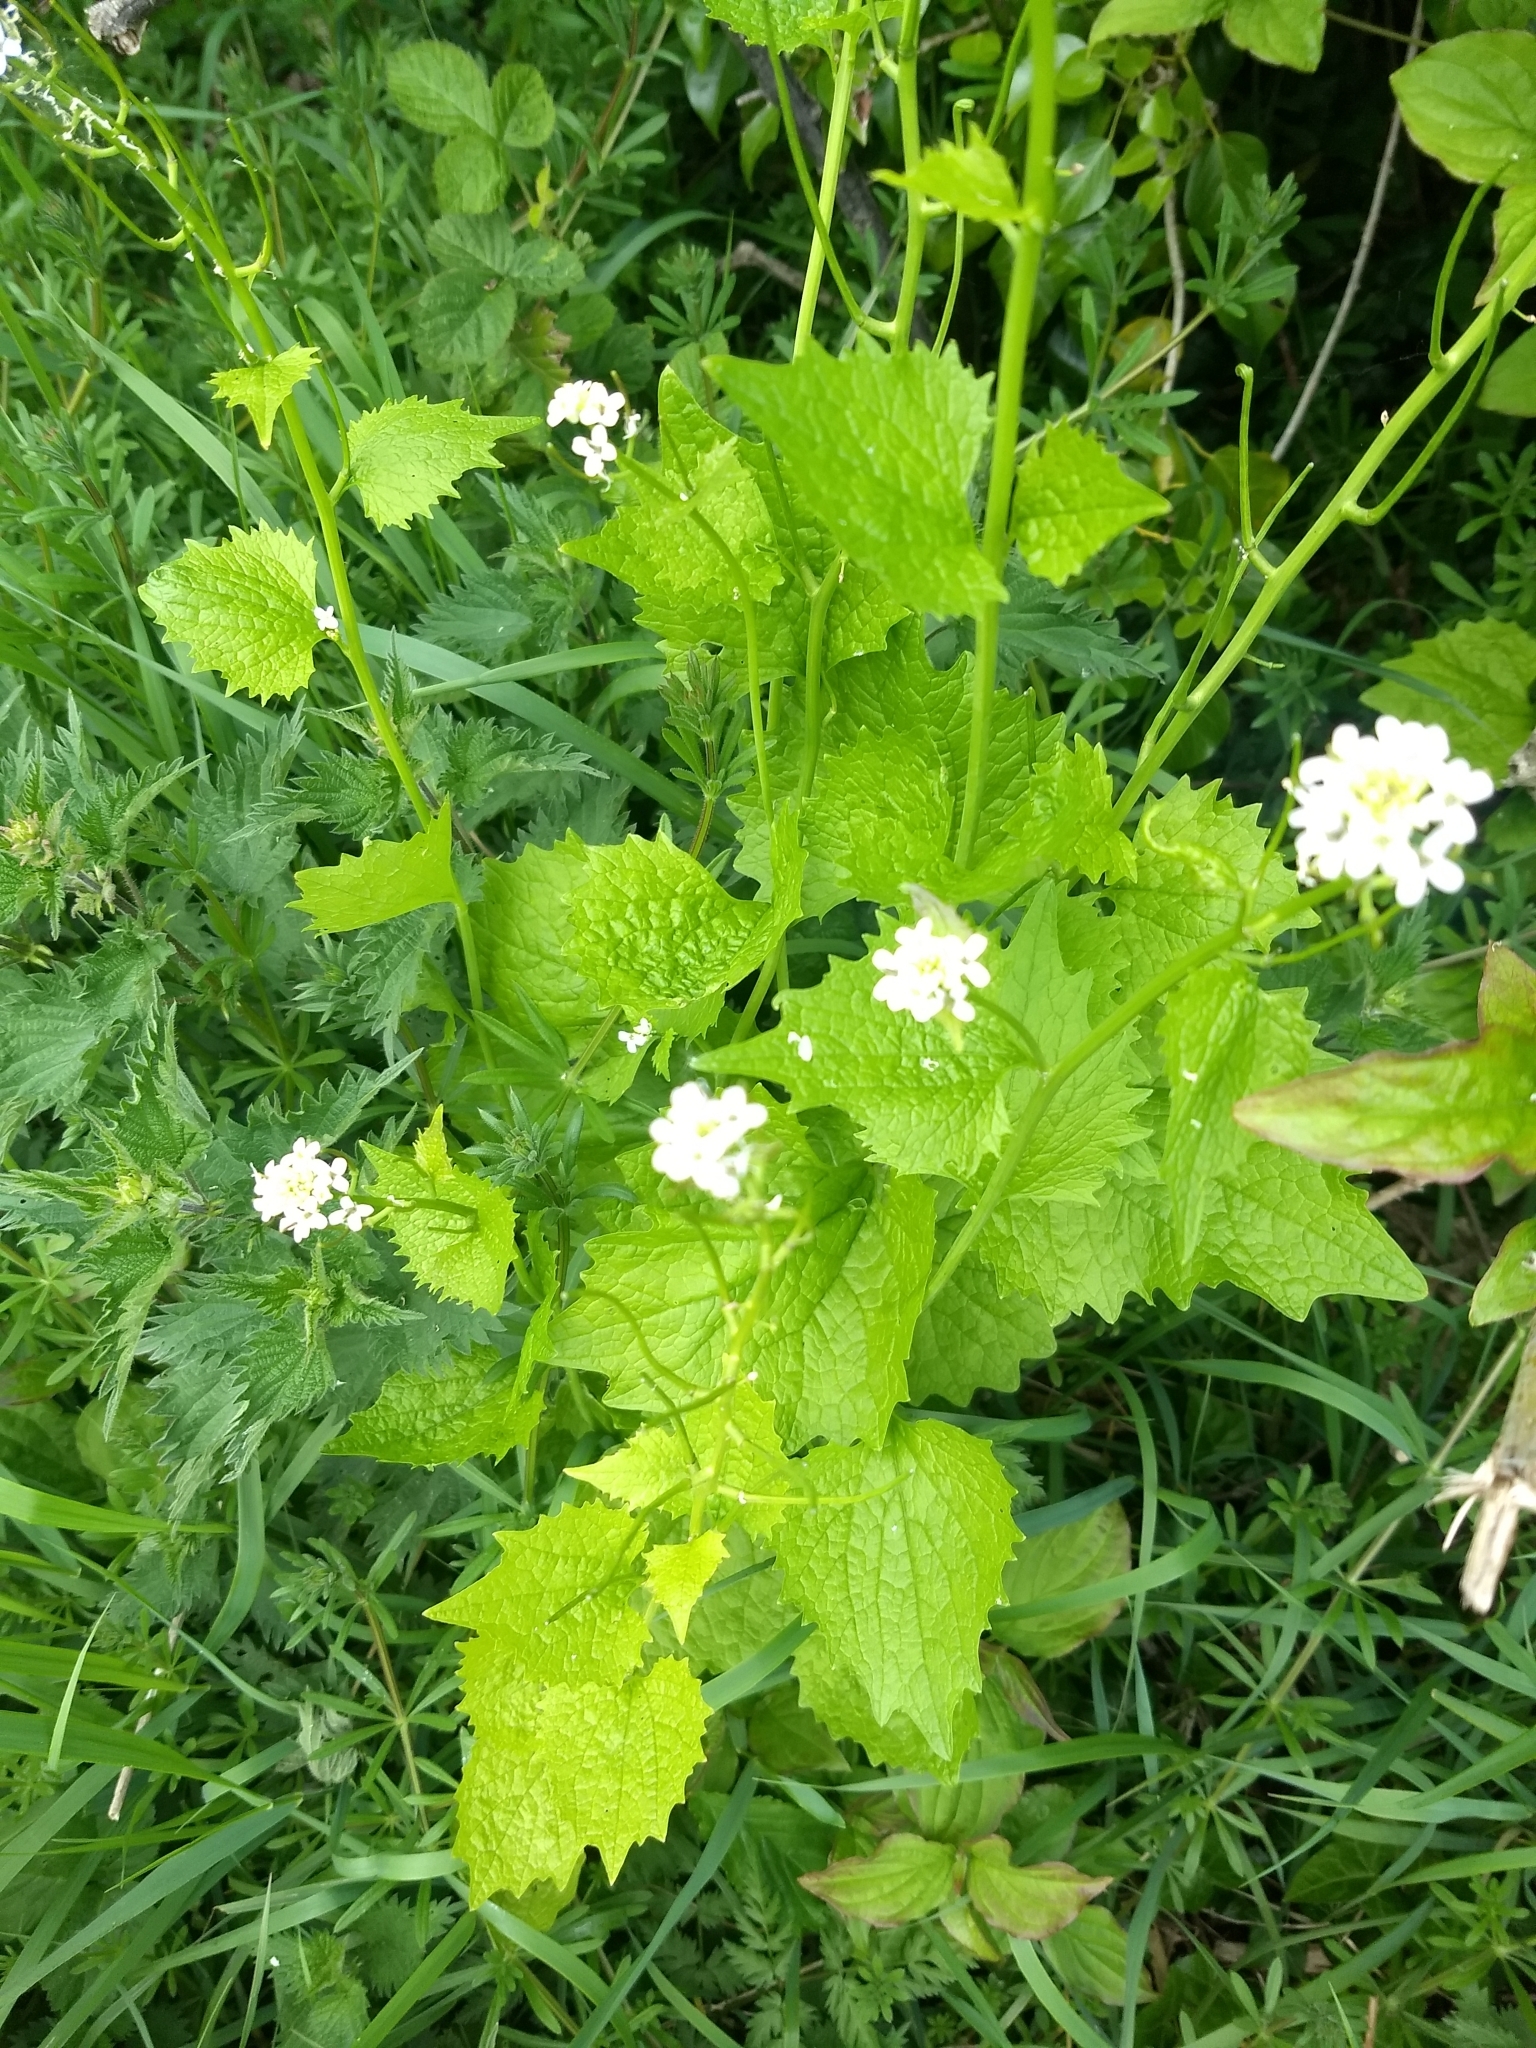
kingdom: Plantae
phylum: Tracheophyta
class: Magnoliopsida
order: Brassicales
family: Brassicaceae
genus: Alliaria
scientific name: Alliaria petiolata
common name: Garlic mustard
